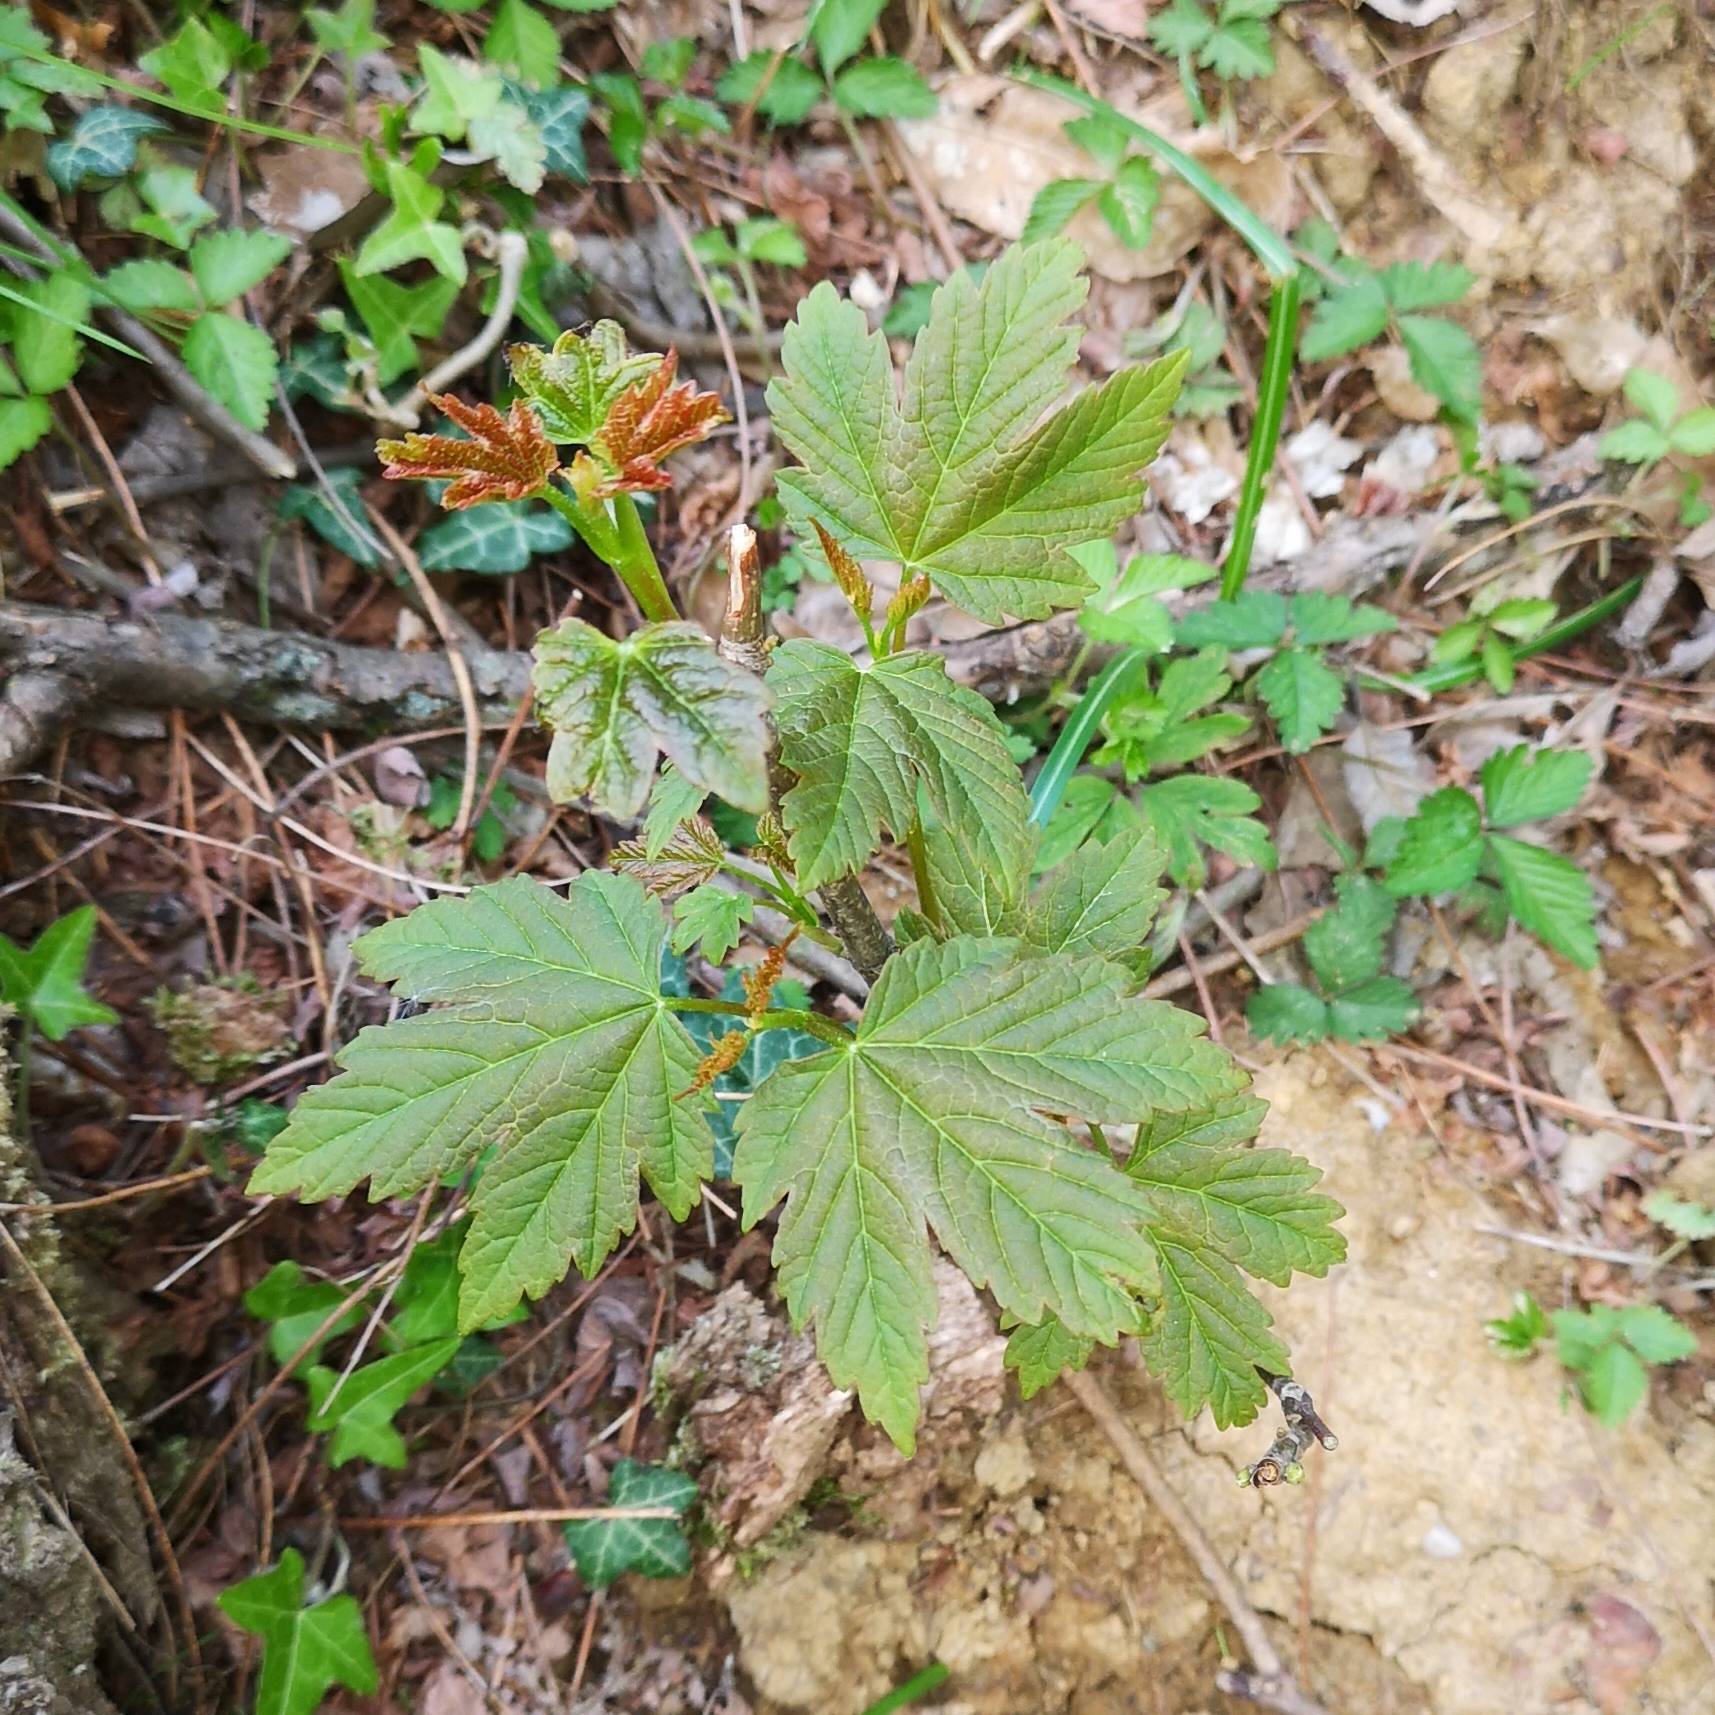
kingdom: Plantae
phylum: Tracheophyta
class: Magnoliopsida
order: Sapindales
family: Sapindaceae
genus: Acer
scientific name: Acer pseudoplatanus
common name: Sycamore
